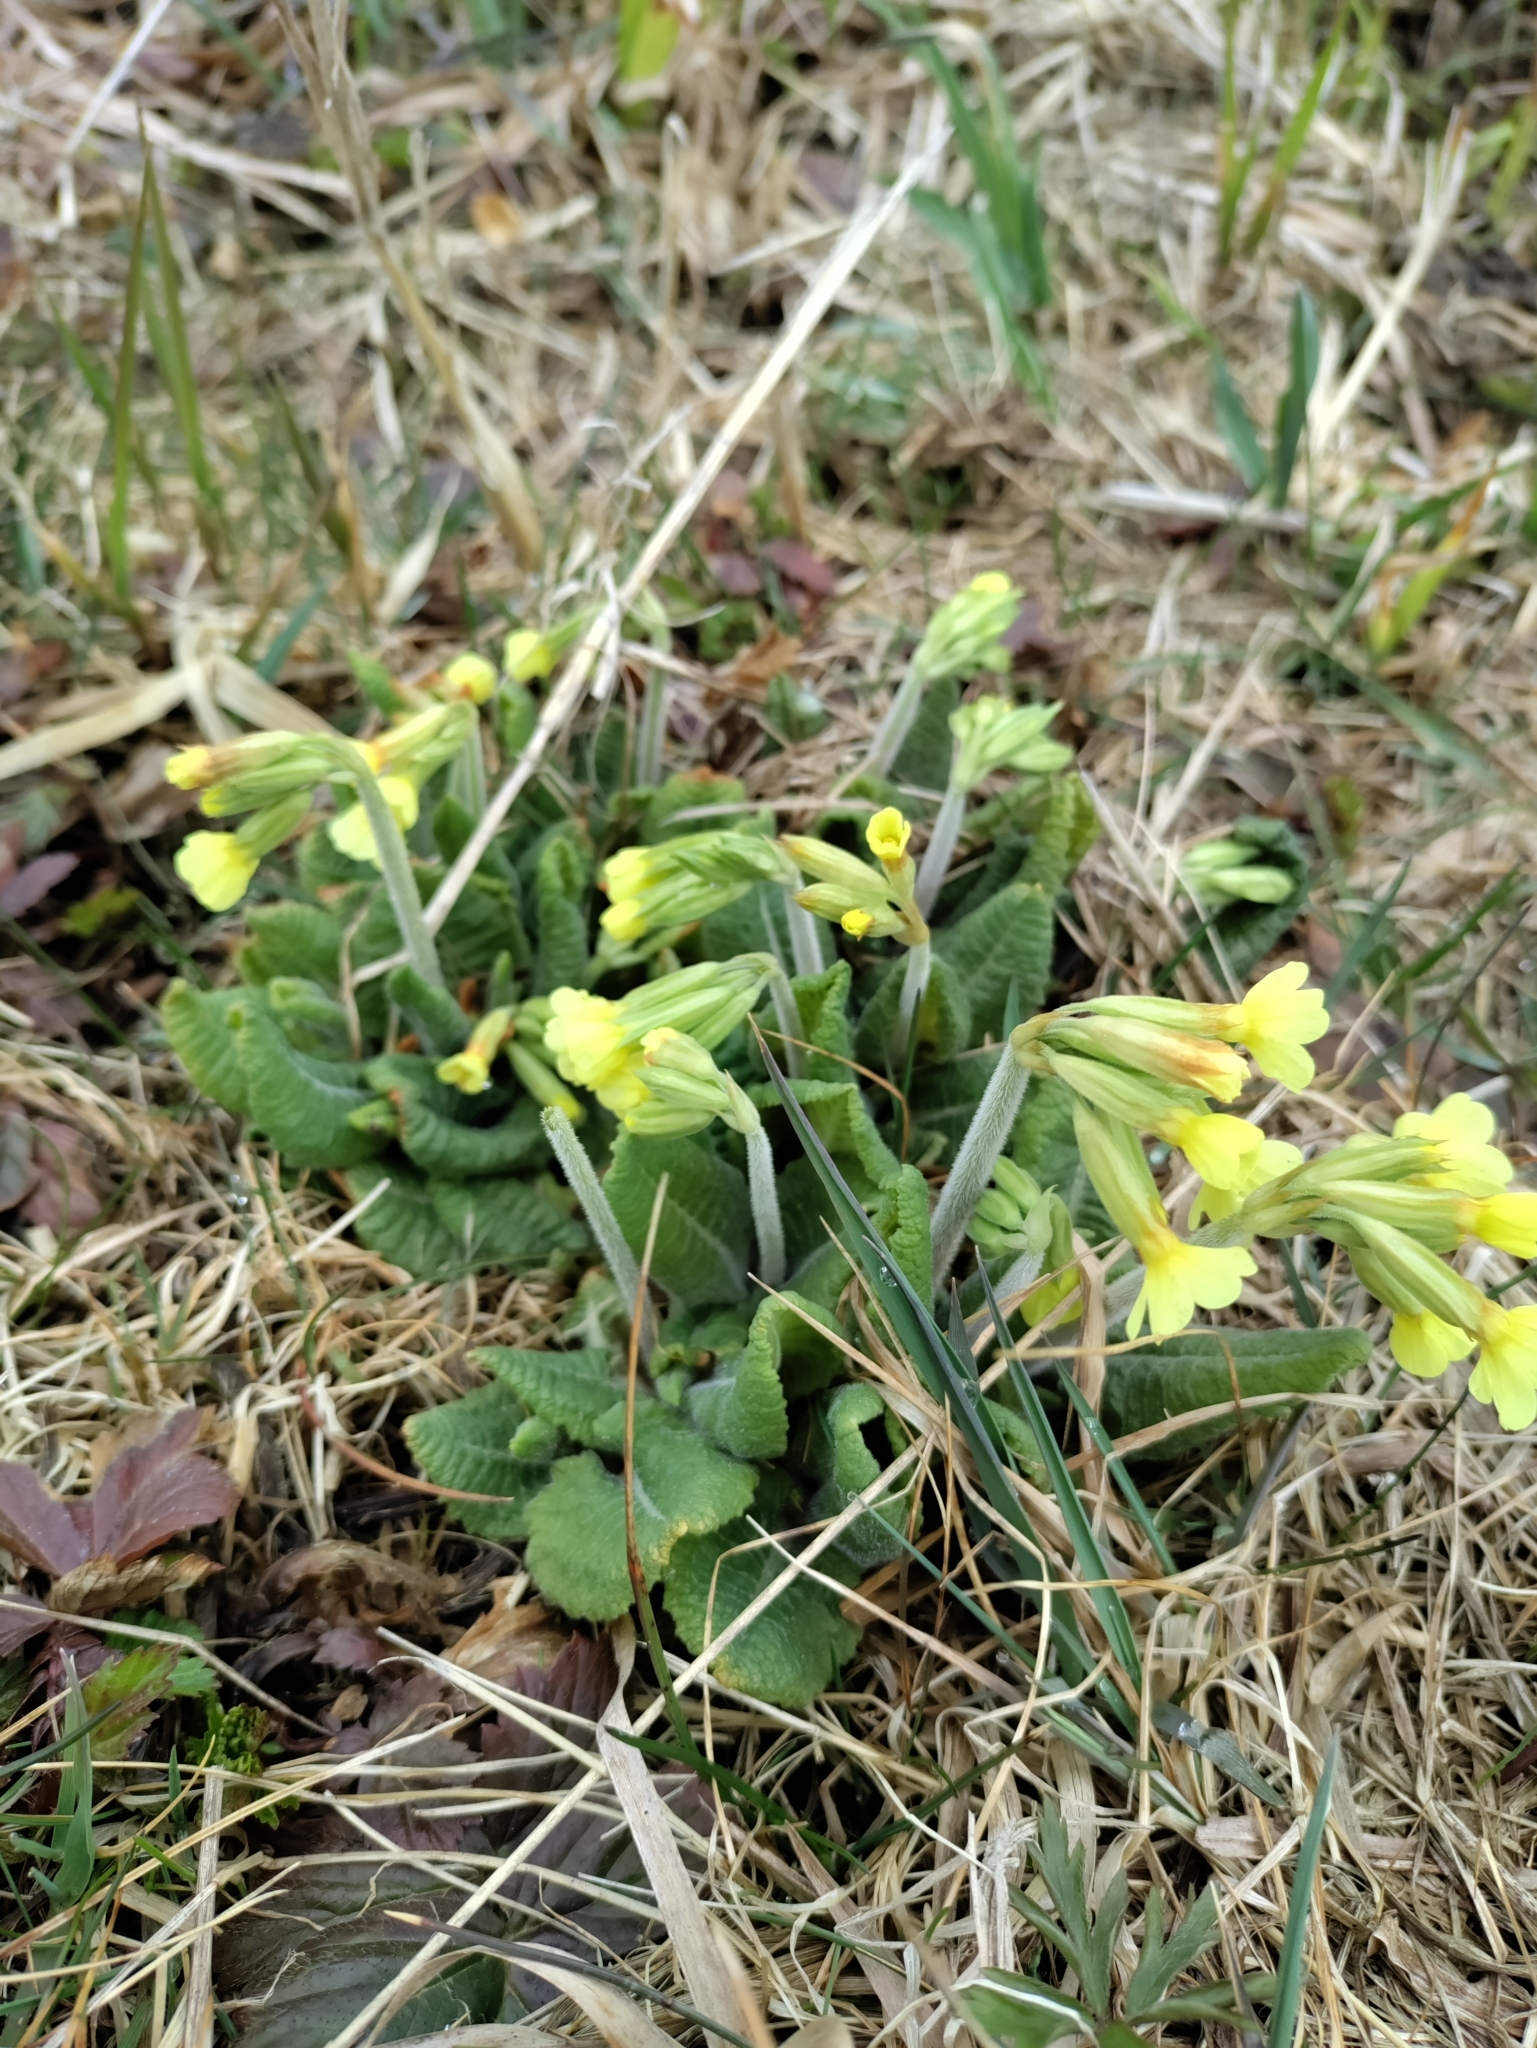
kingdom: Plantae
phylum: Tracheophyta
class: Magnoliopsida
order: Ericales
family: Primulaceae
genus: Primula
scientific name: Primula elatior
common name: Oxlip
